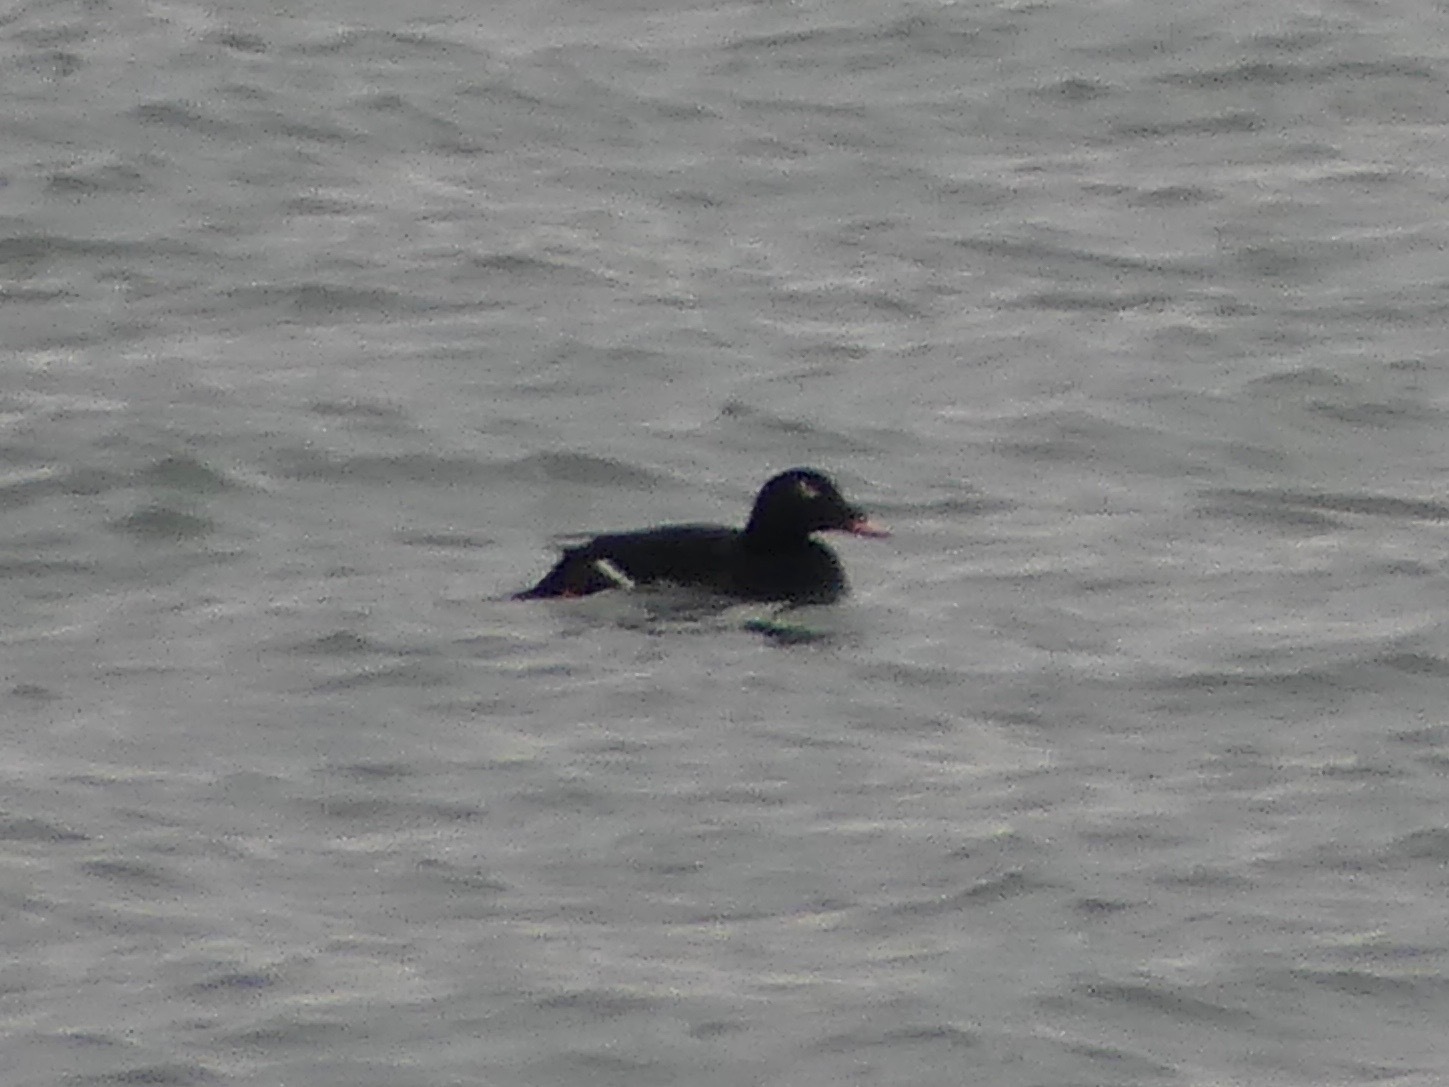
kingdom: Animalia
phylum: Chordata
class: Aves
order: Anseriformes
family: Anatidae
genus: Melanitta
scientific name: Melanitta deglandi
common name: White-winged scoter
